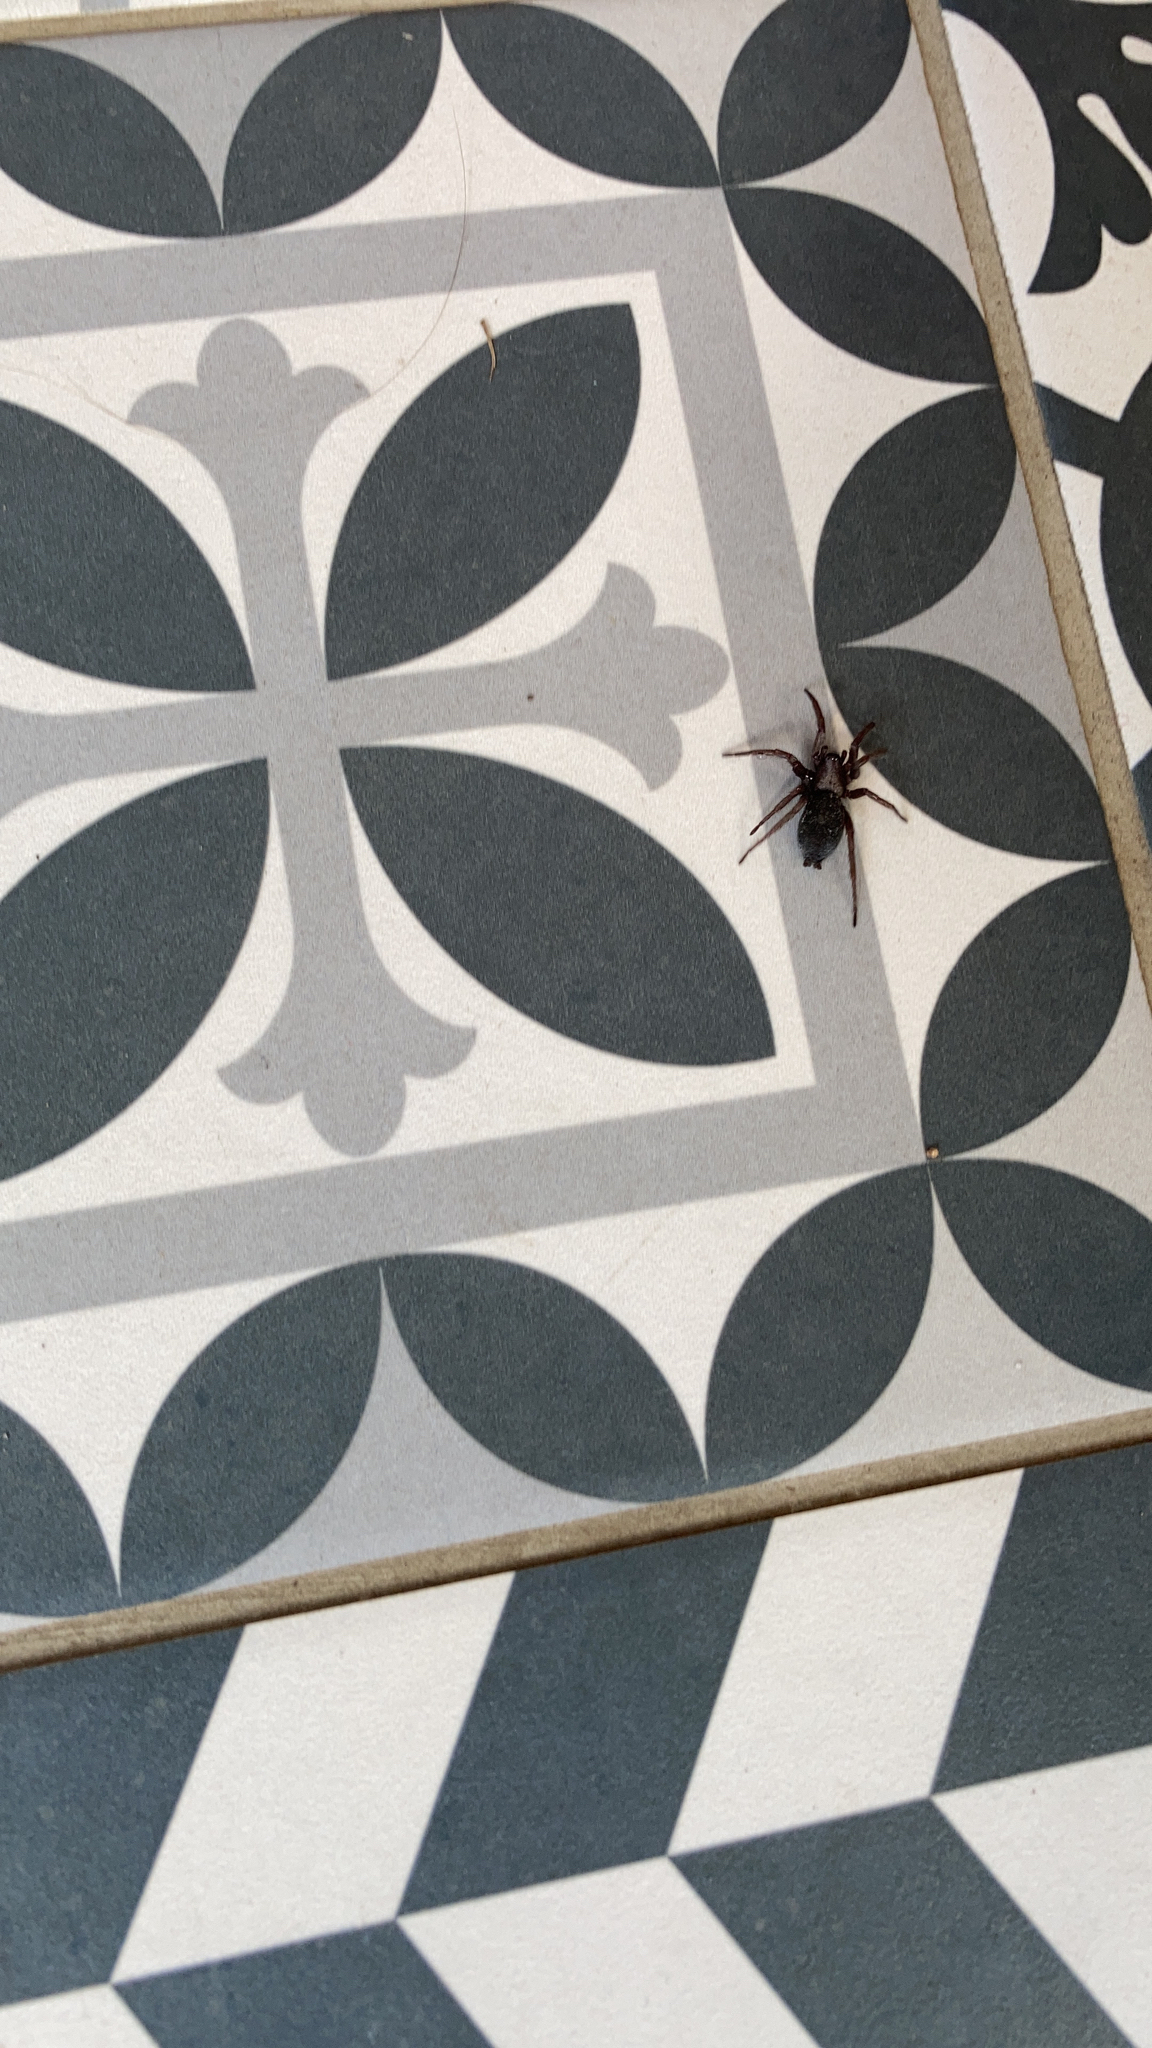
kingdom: Animalia
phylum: Arthropoda
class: Arachnida
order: Araneae
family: Gnaphosidae
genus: Scotophaeus
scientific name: Scotophaeus blackwalli
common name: Mouse spider
